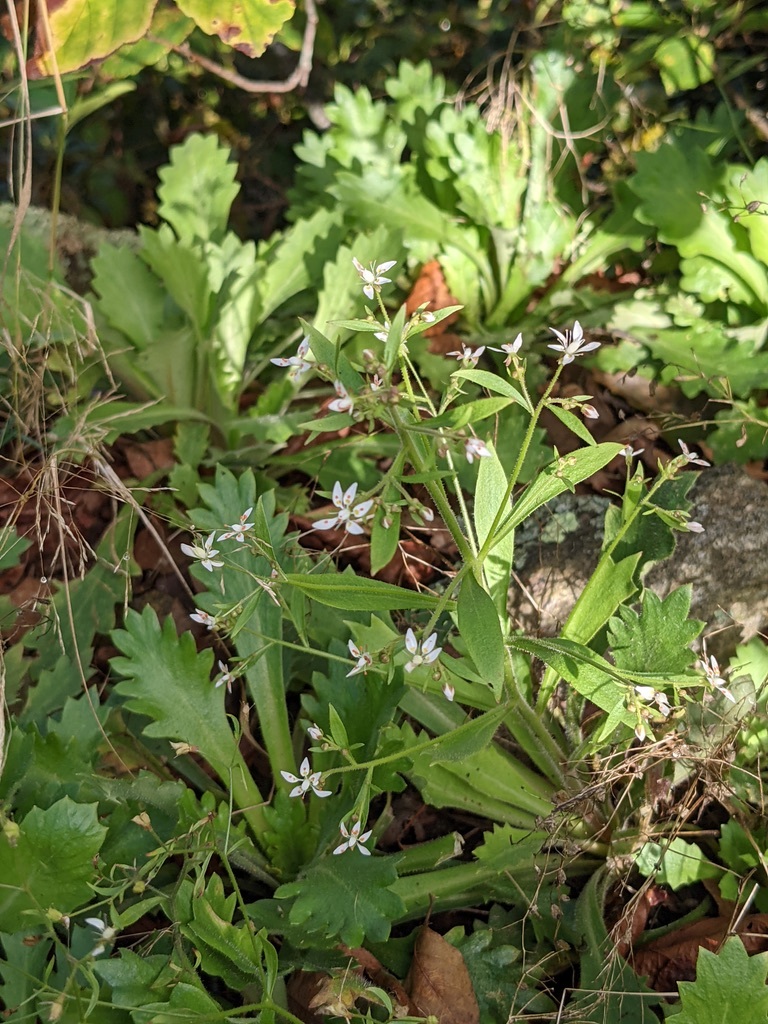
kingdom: Plantae
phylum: Tracheophyta
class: Magnoliopsida
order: Saxifragales
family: Saxifragaceae
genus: Micranthes
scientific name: Micranthes petiolaris
